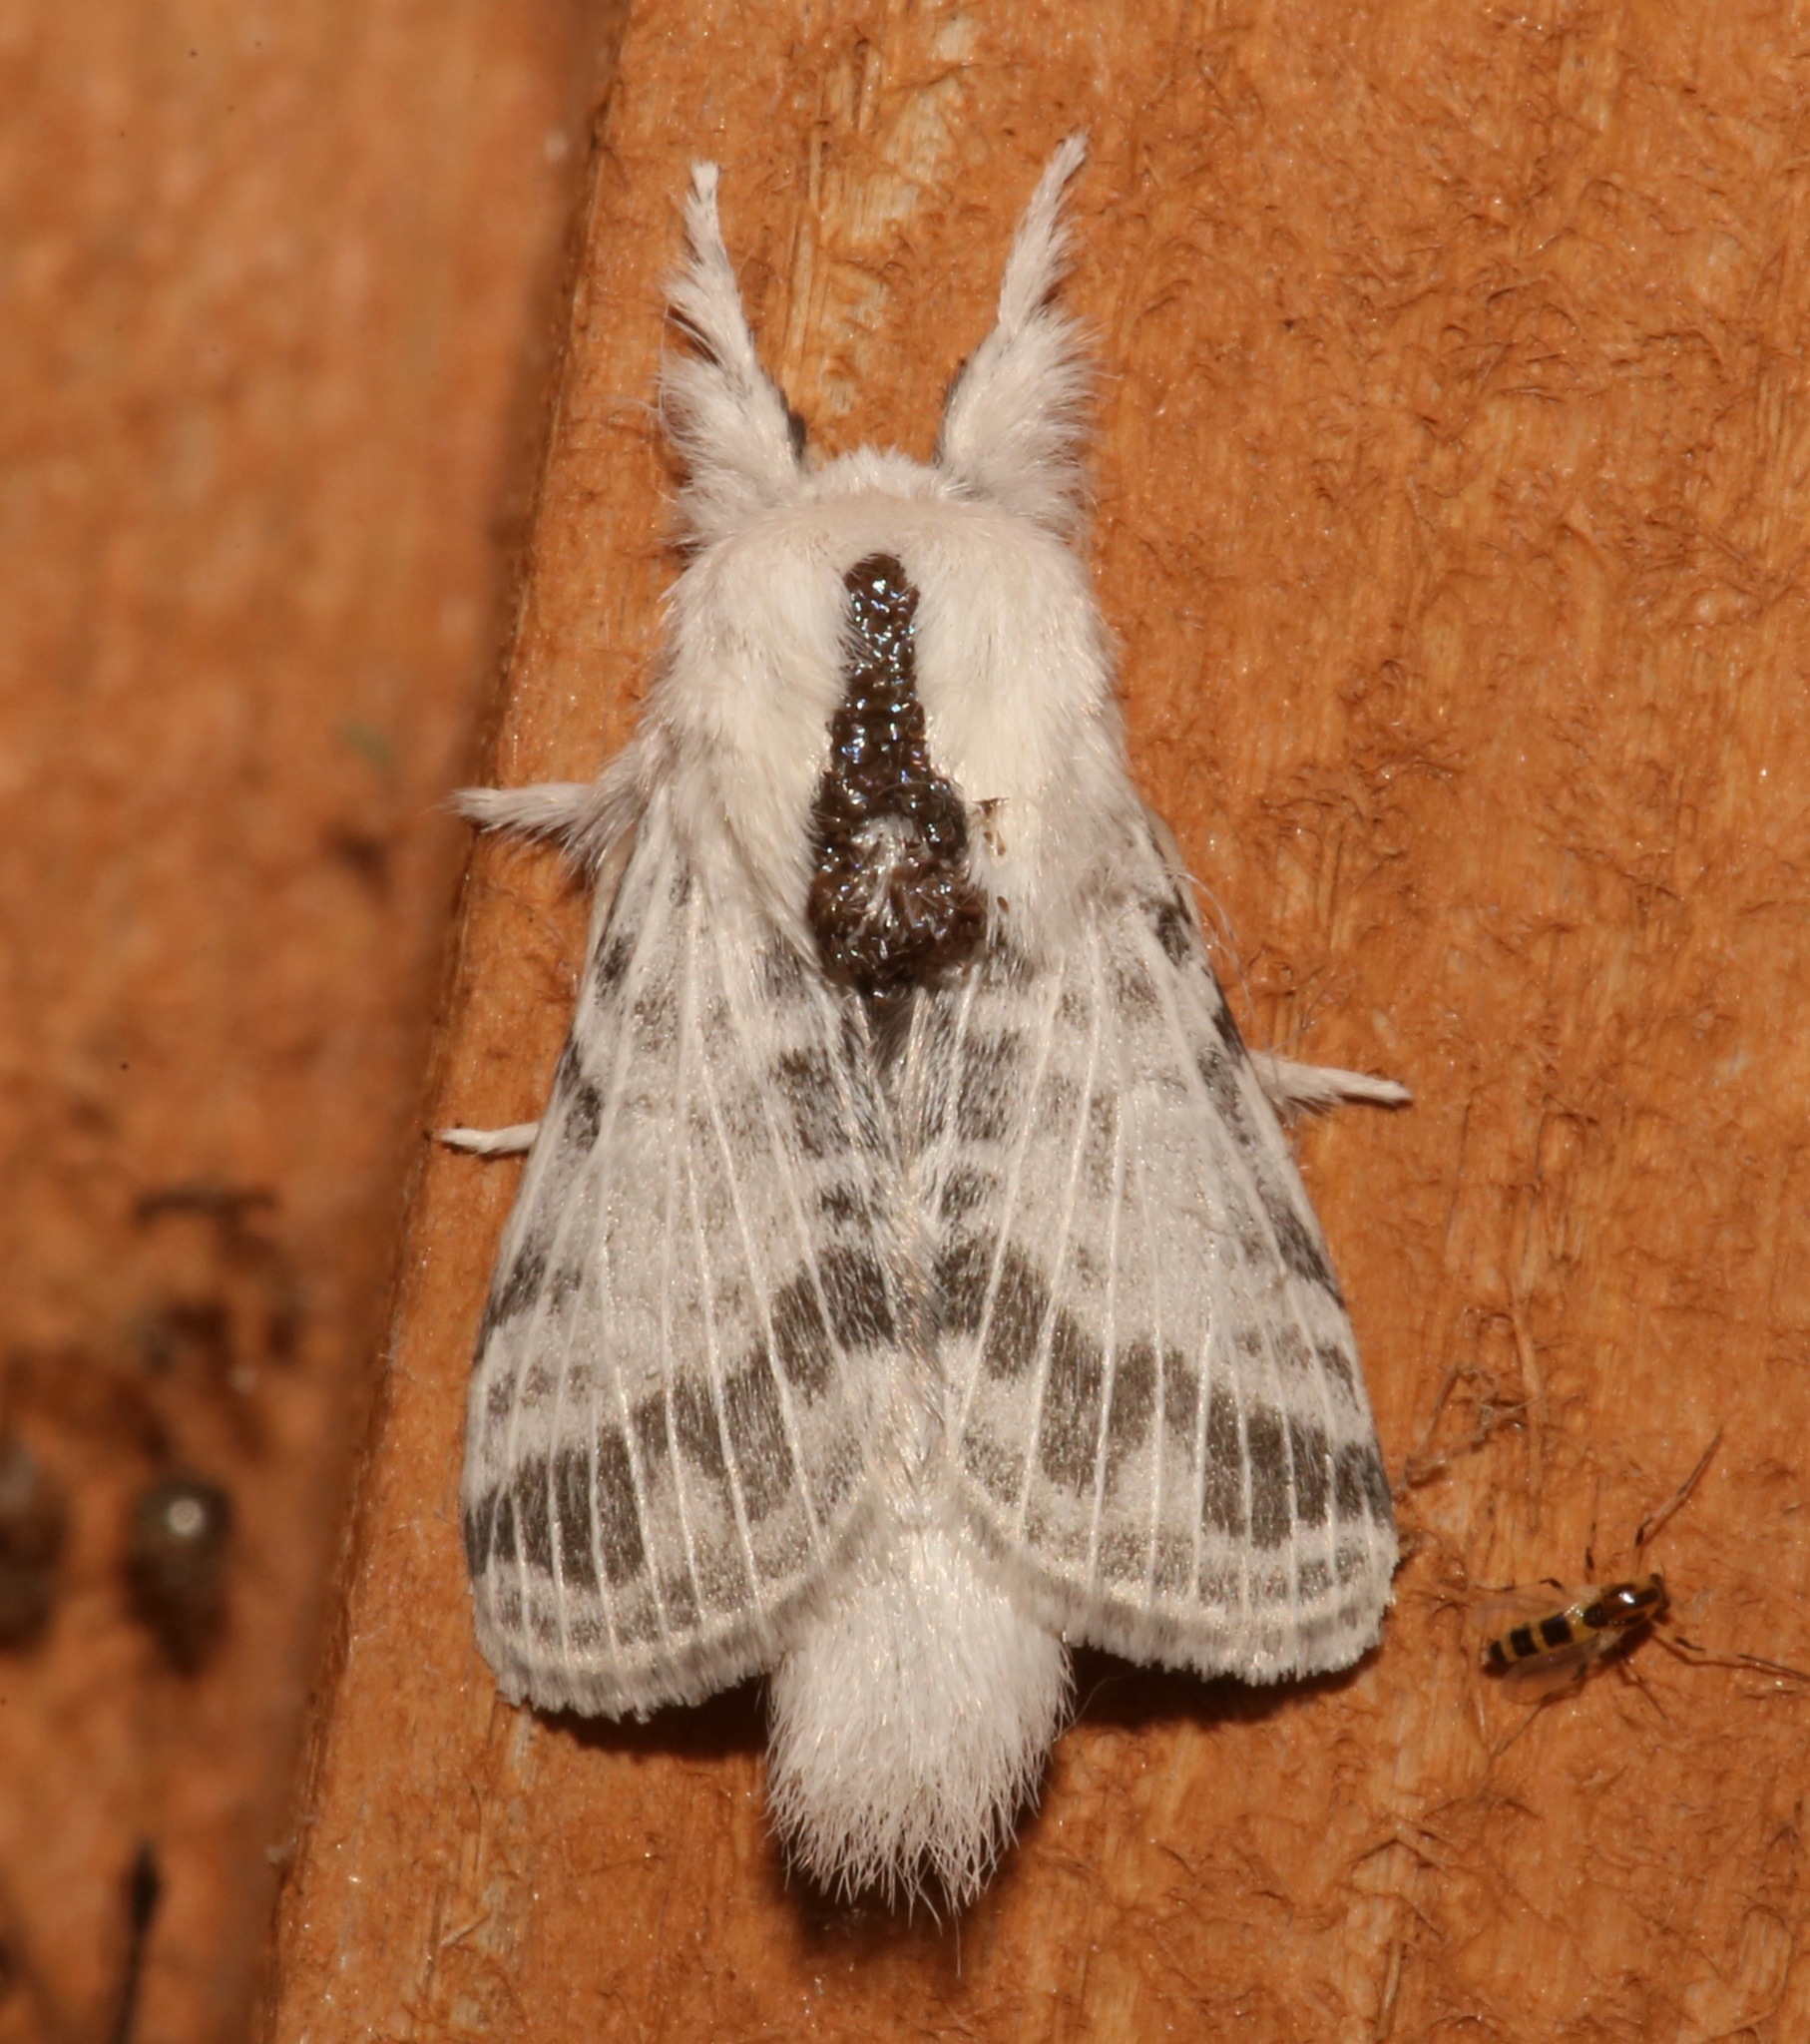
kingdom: Animalia
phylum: Arthropoda
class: Insecta
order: Lepidoptera
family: Lasiocampidae
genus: Tolype
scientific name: Tolype minta
